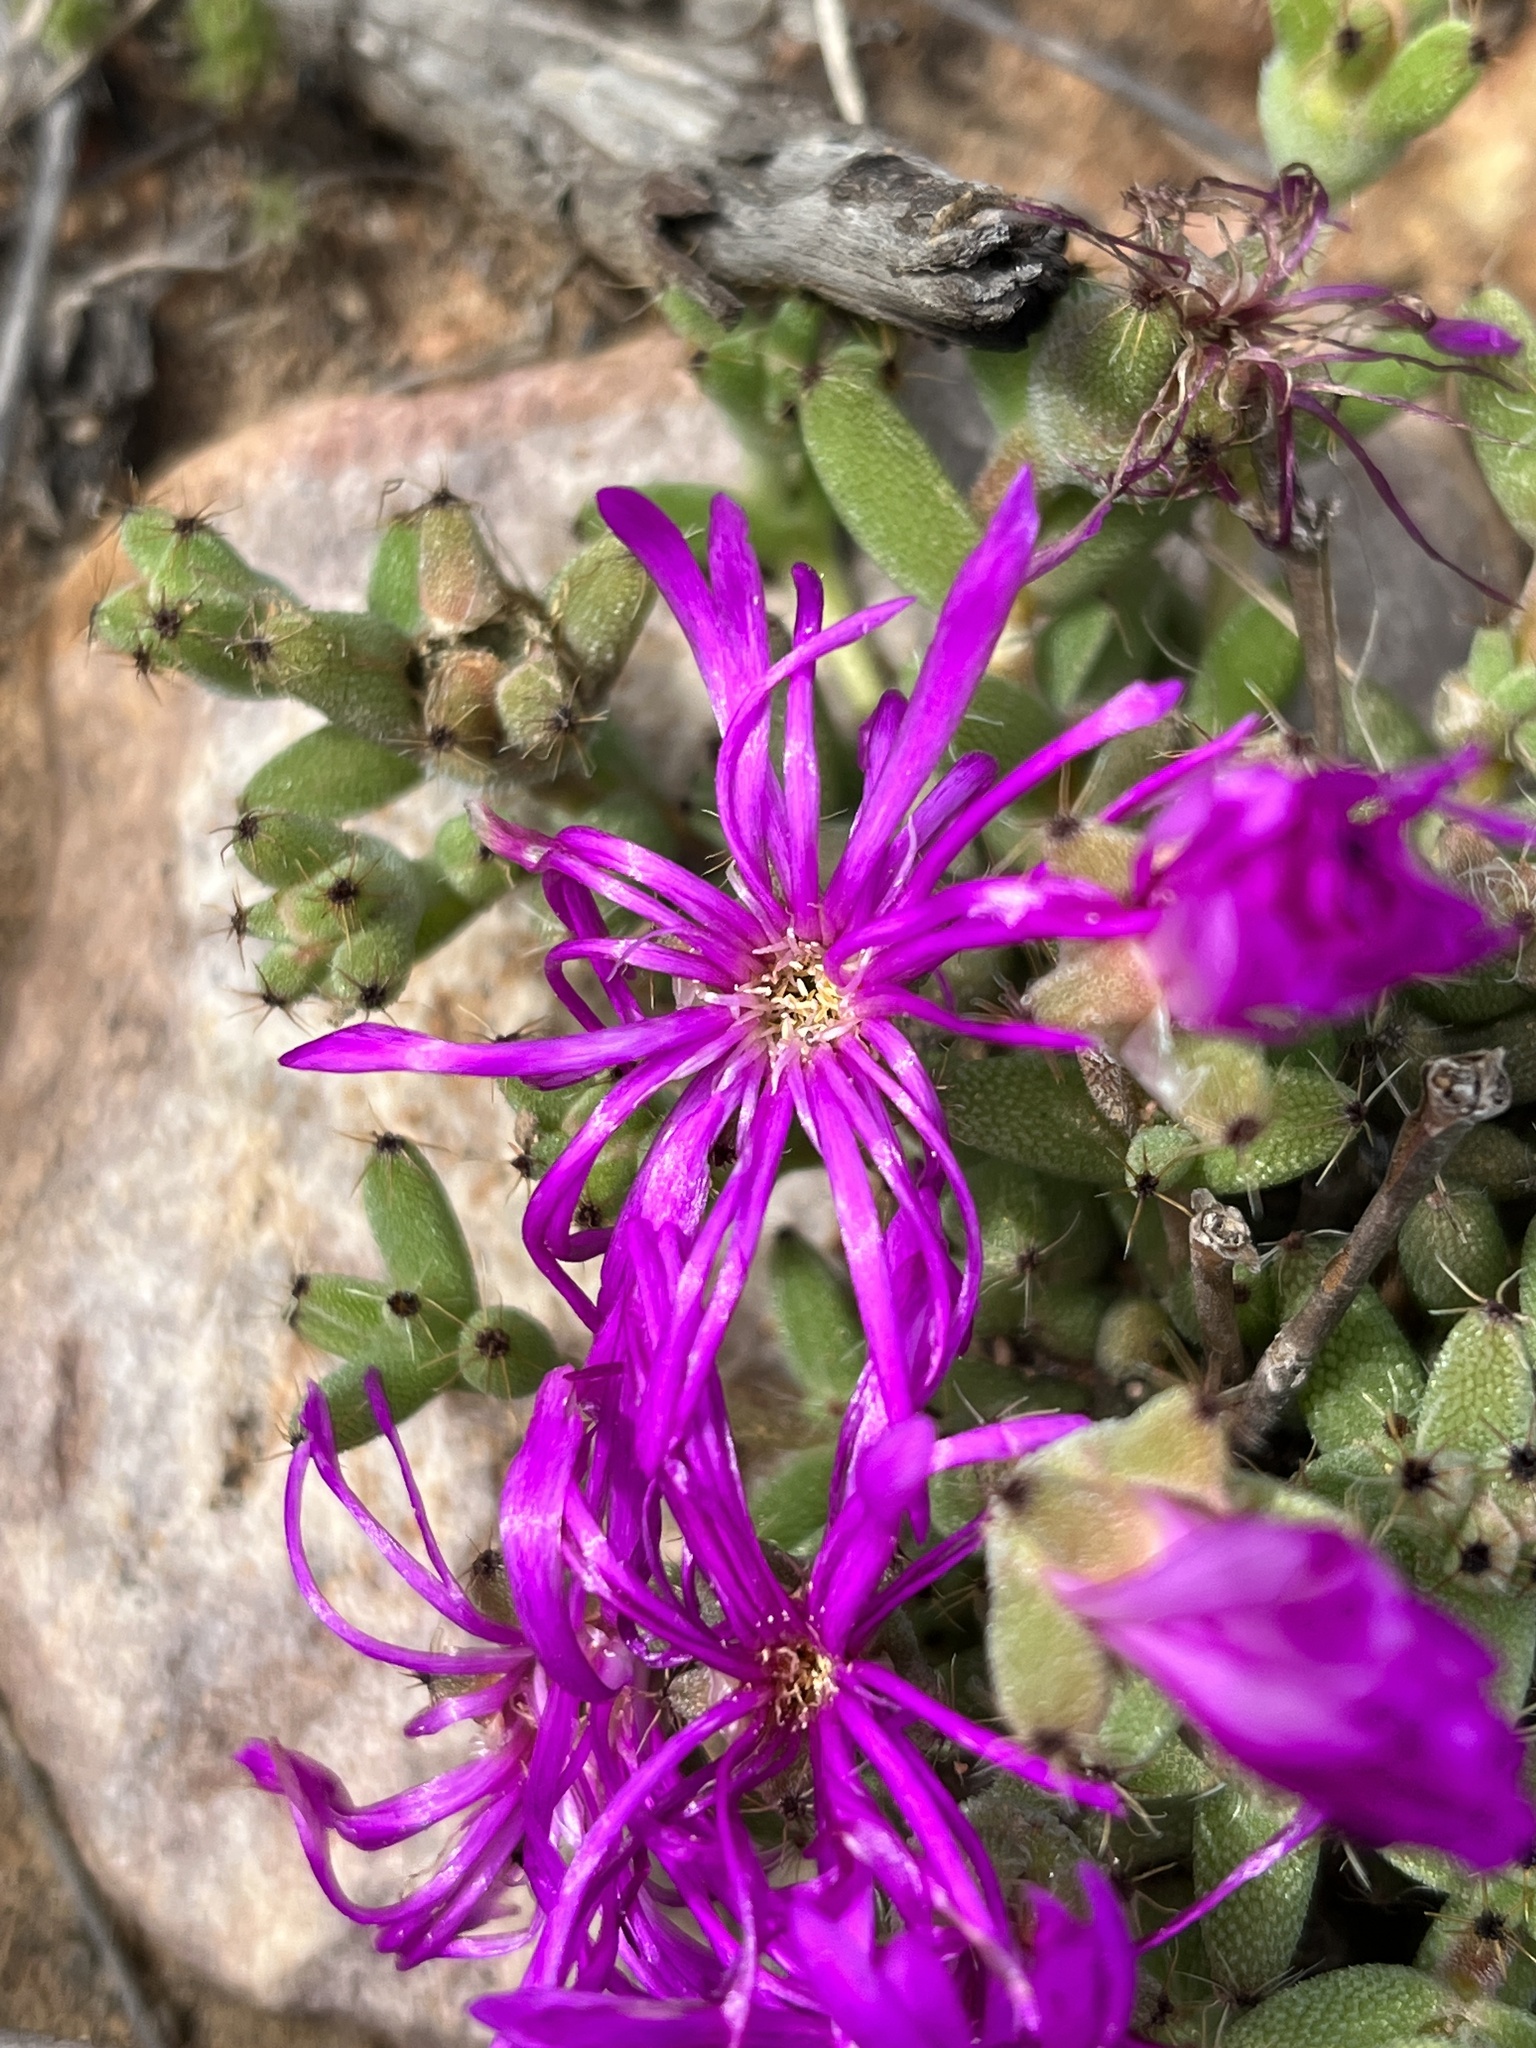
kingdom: Plantae
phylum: Tracheophyta
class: Magnoliopsida
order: Caryophyllales
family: Aizoaceae
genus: Trichodiadema
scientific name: Trichodiadema pomeridianum
